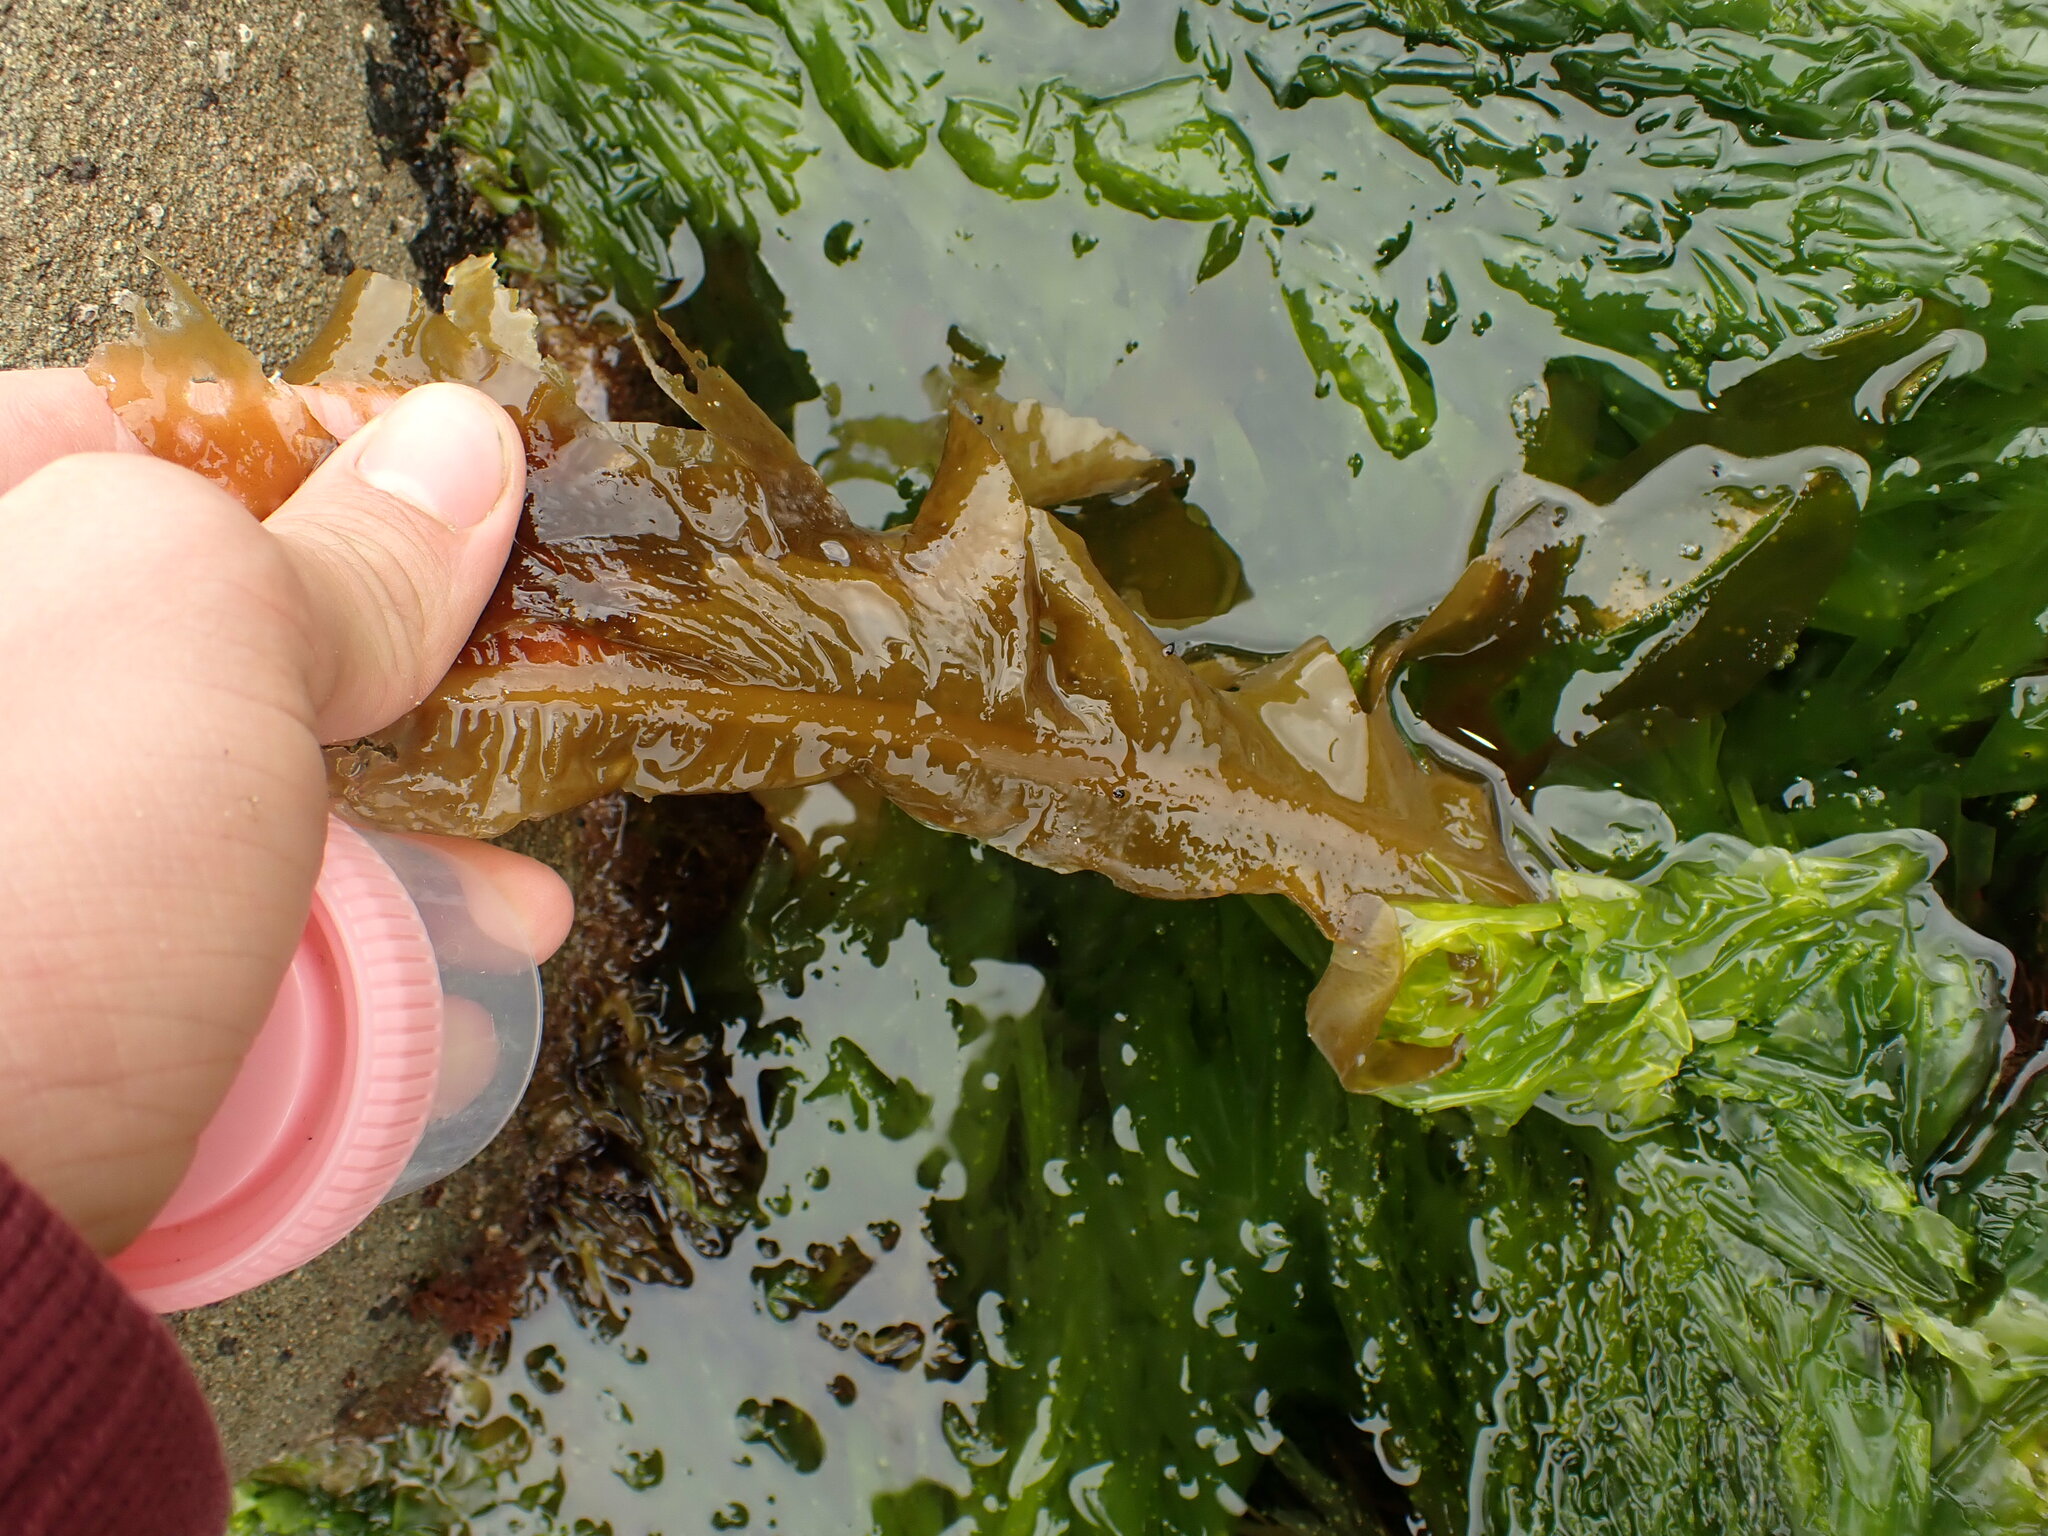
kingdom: Chromista
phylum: Ochrophyta
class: Phaeophyceae
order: Laminariales
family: Alariaceae
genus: Undaria
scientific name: Undaria pinnatifida
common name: Asian kelp
